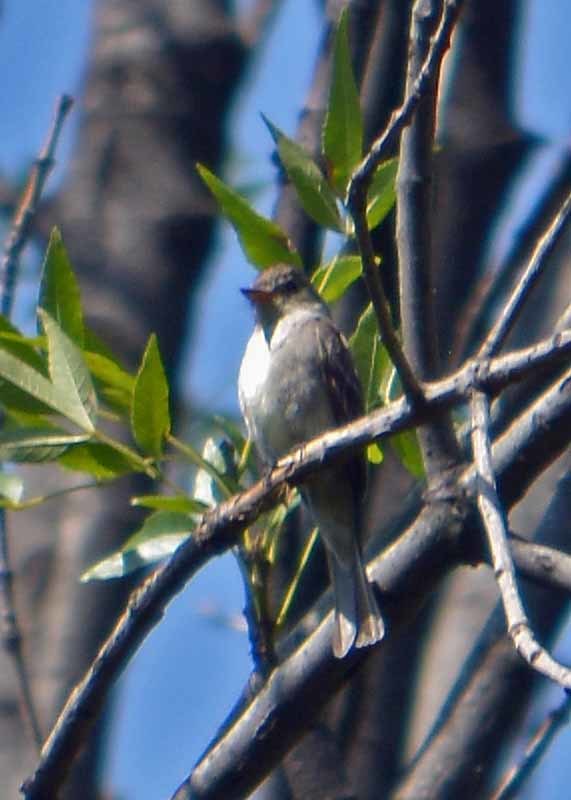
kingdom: Animalia
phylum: Chordata
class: Aves
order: Passeriformes
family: Tyrannidae
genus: Contopus
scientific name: Contopus pertinax
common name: Greater pewee
